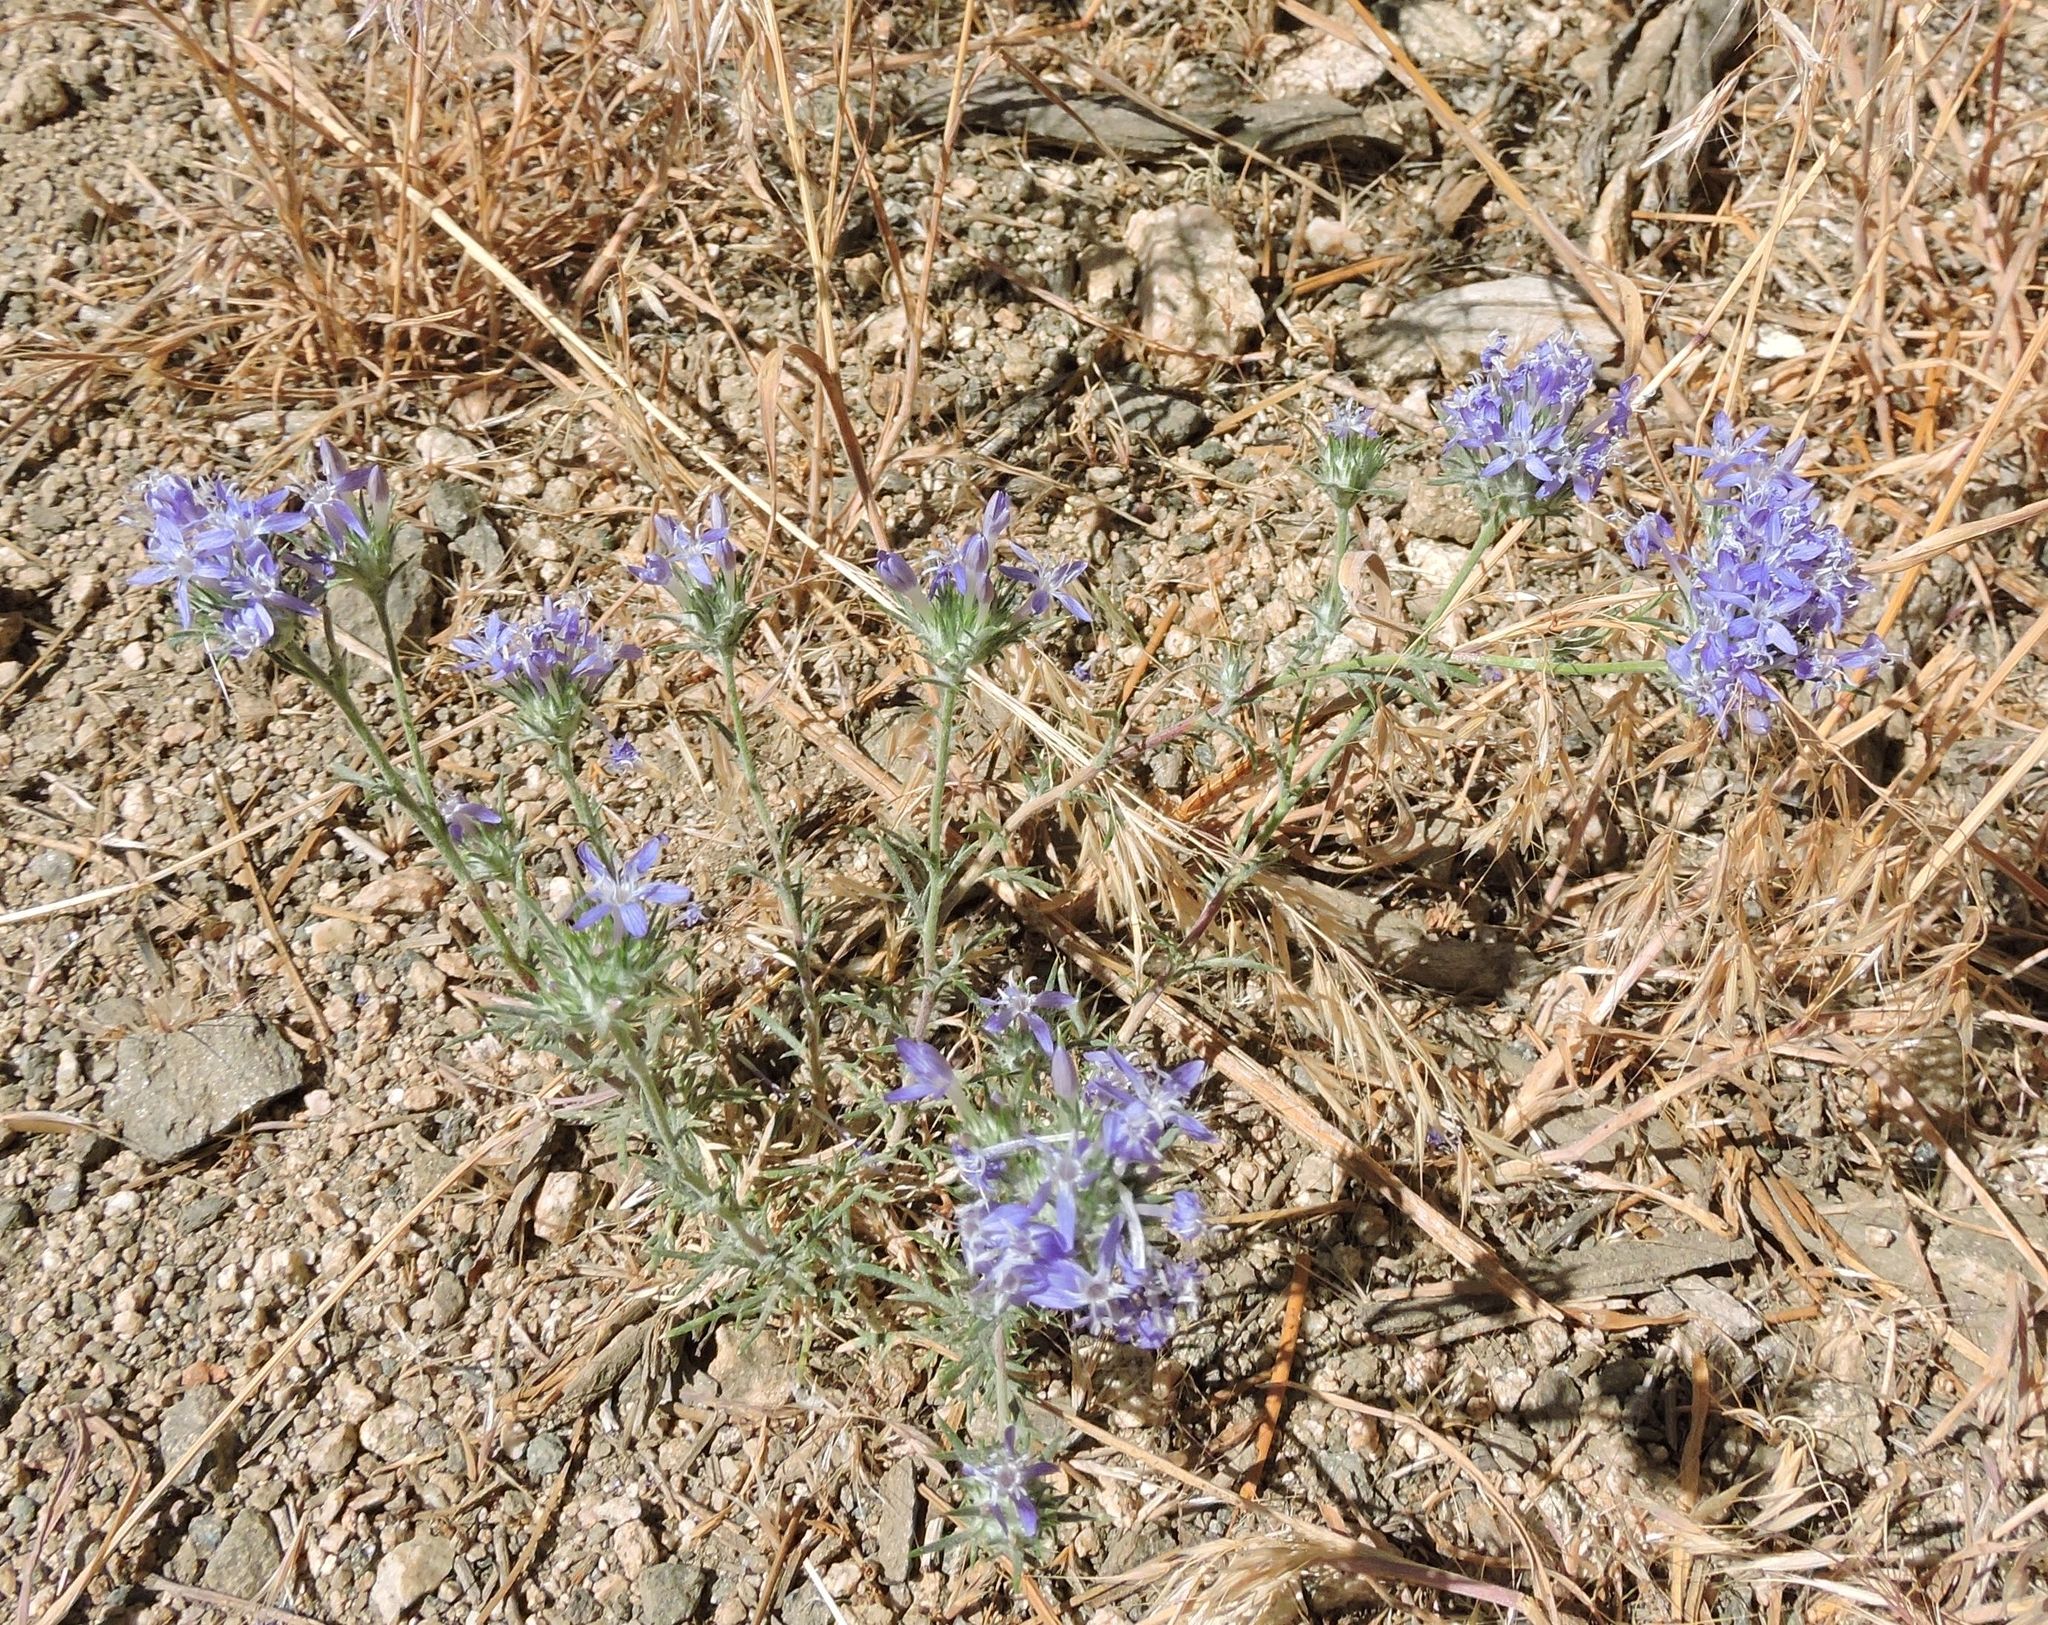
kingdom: Plantae
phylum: Tracheophyta
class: Magnoliopsida
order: Ericales
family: Polemoniaceae
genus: Eriastrum
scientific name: Eriastrum densifolium
